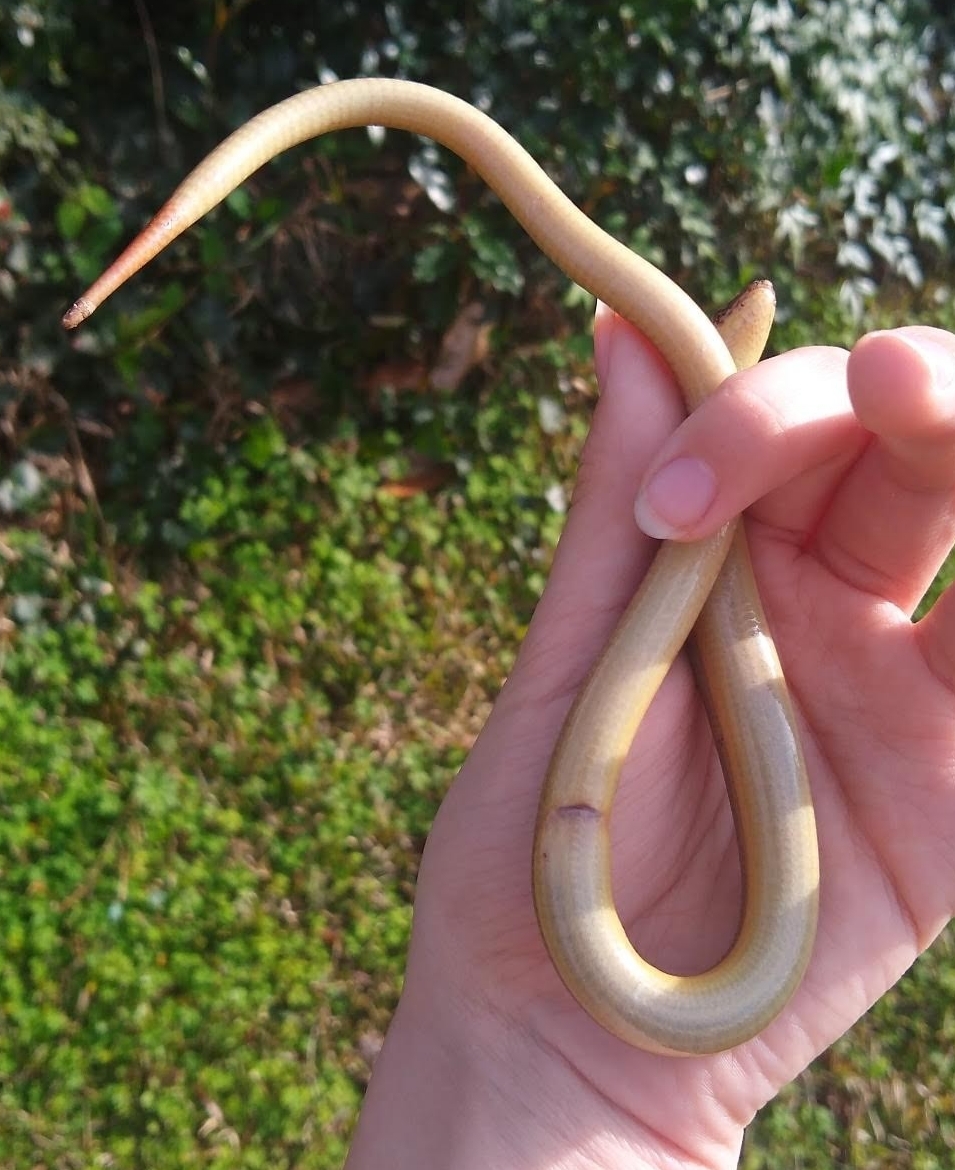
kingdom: Animalia
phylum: Chordata
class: Squamata
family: Anguidae
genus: Ophisaurus
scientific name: Ophisaurus ventralis
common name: Eastern glass lizard
